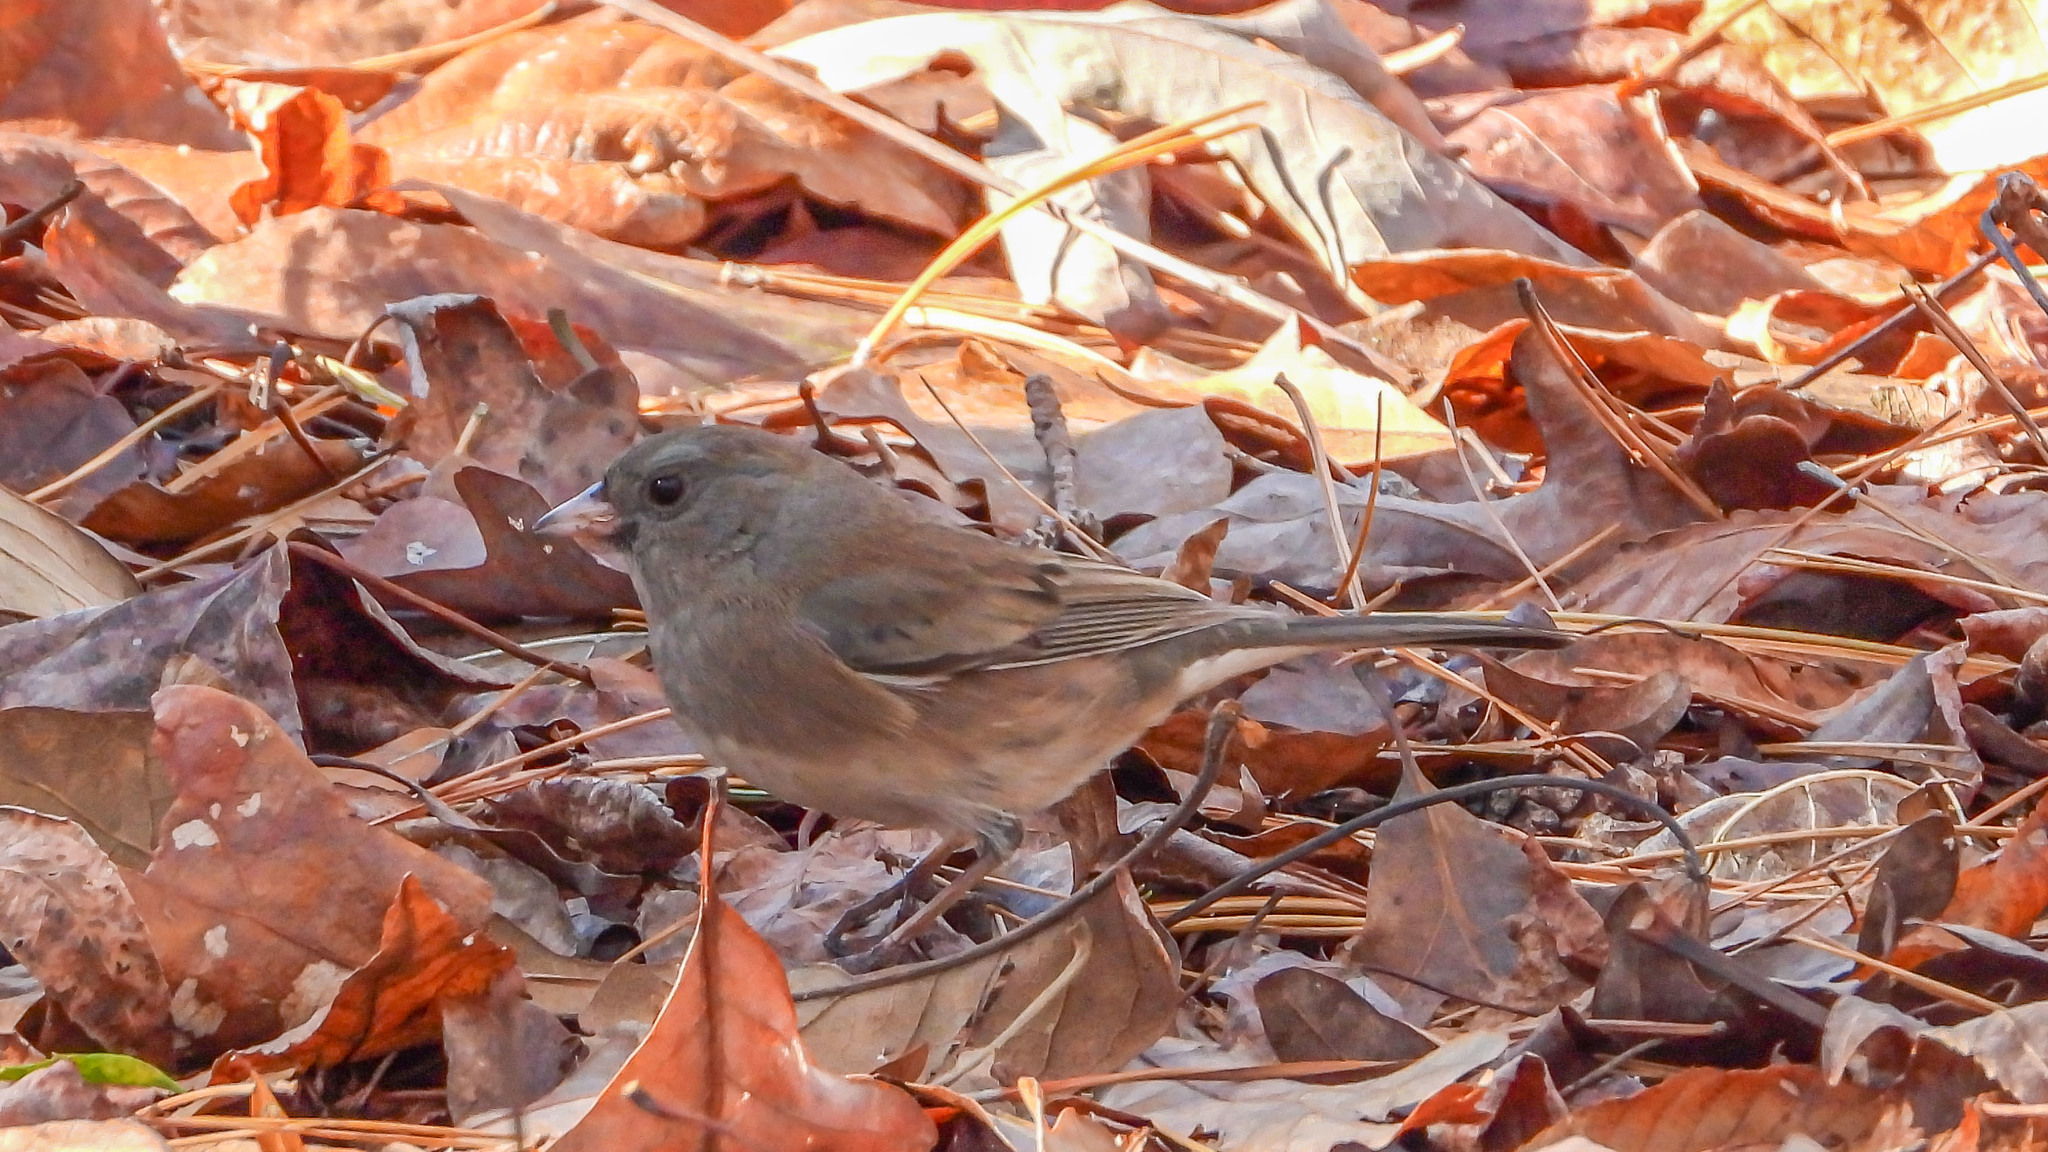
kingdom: Animalia
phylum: Chordata
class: Aves
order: Passeriformes
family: Passerellidae
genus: Junco
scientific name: Junco hyemalis
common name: Dark-eyed junco
